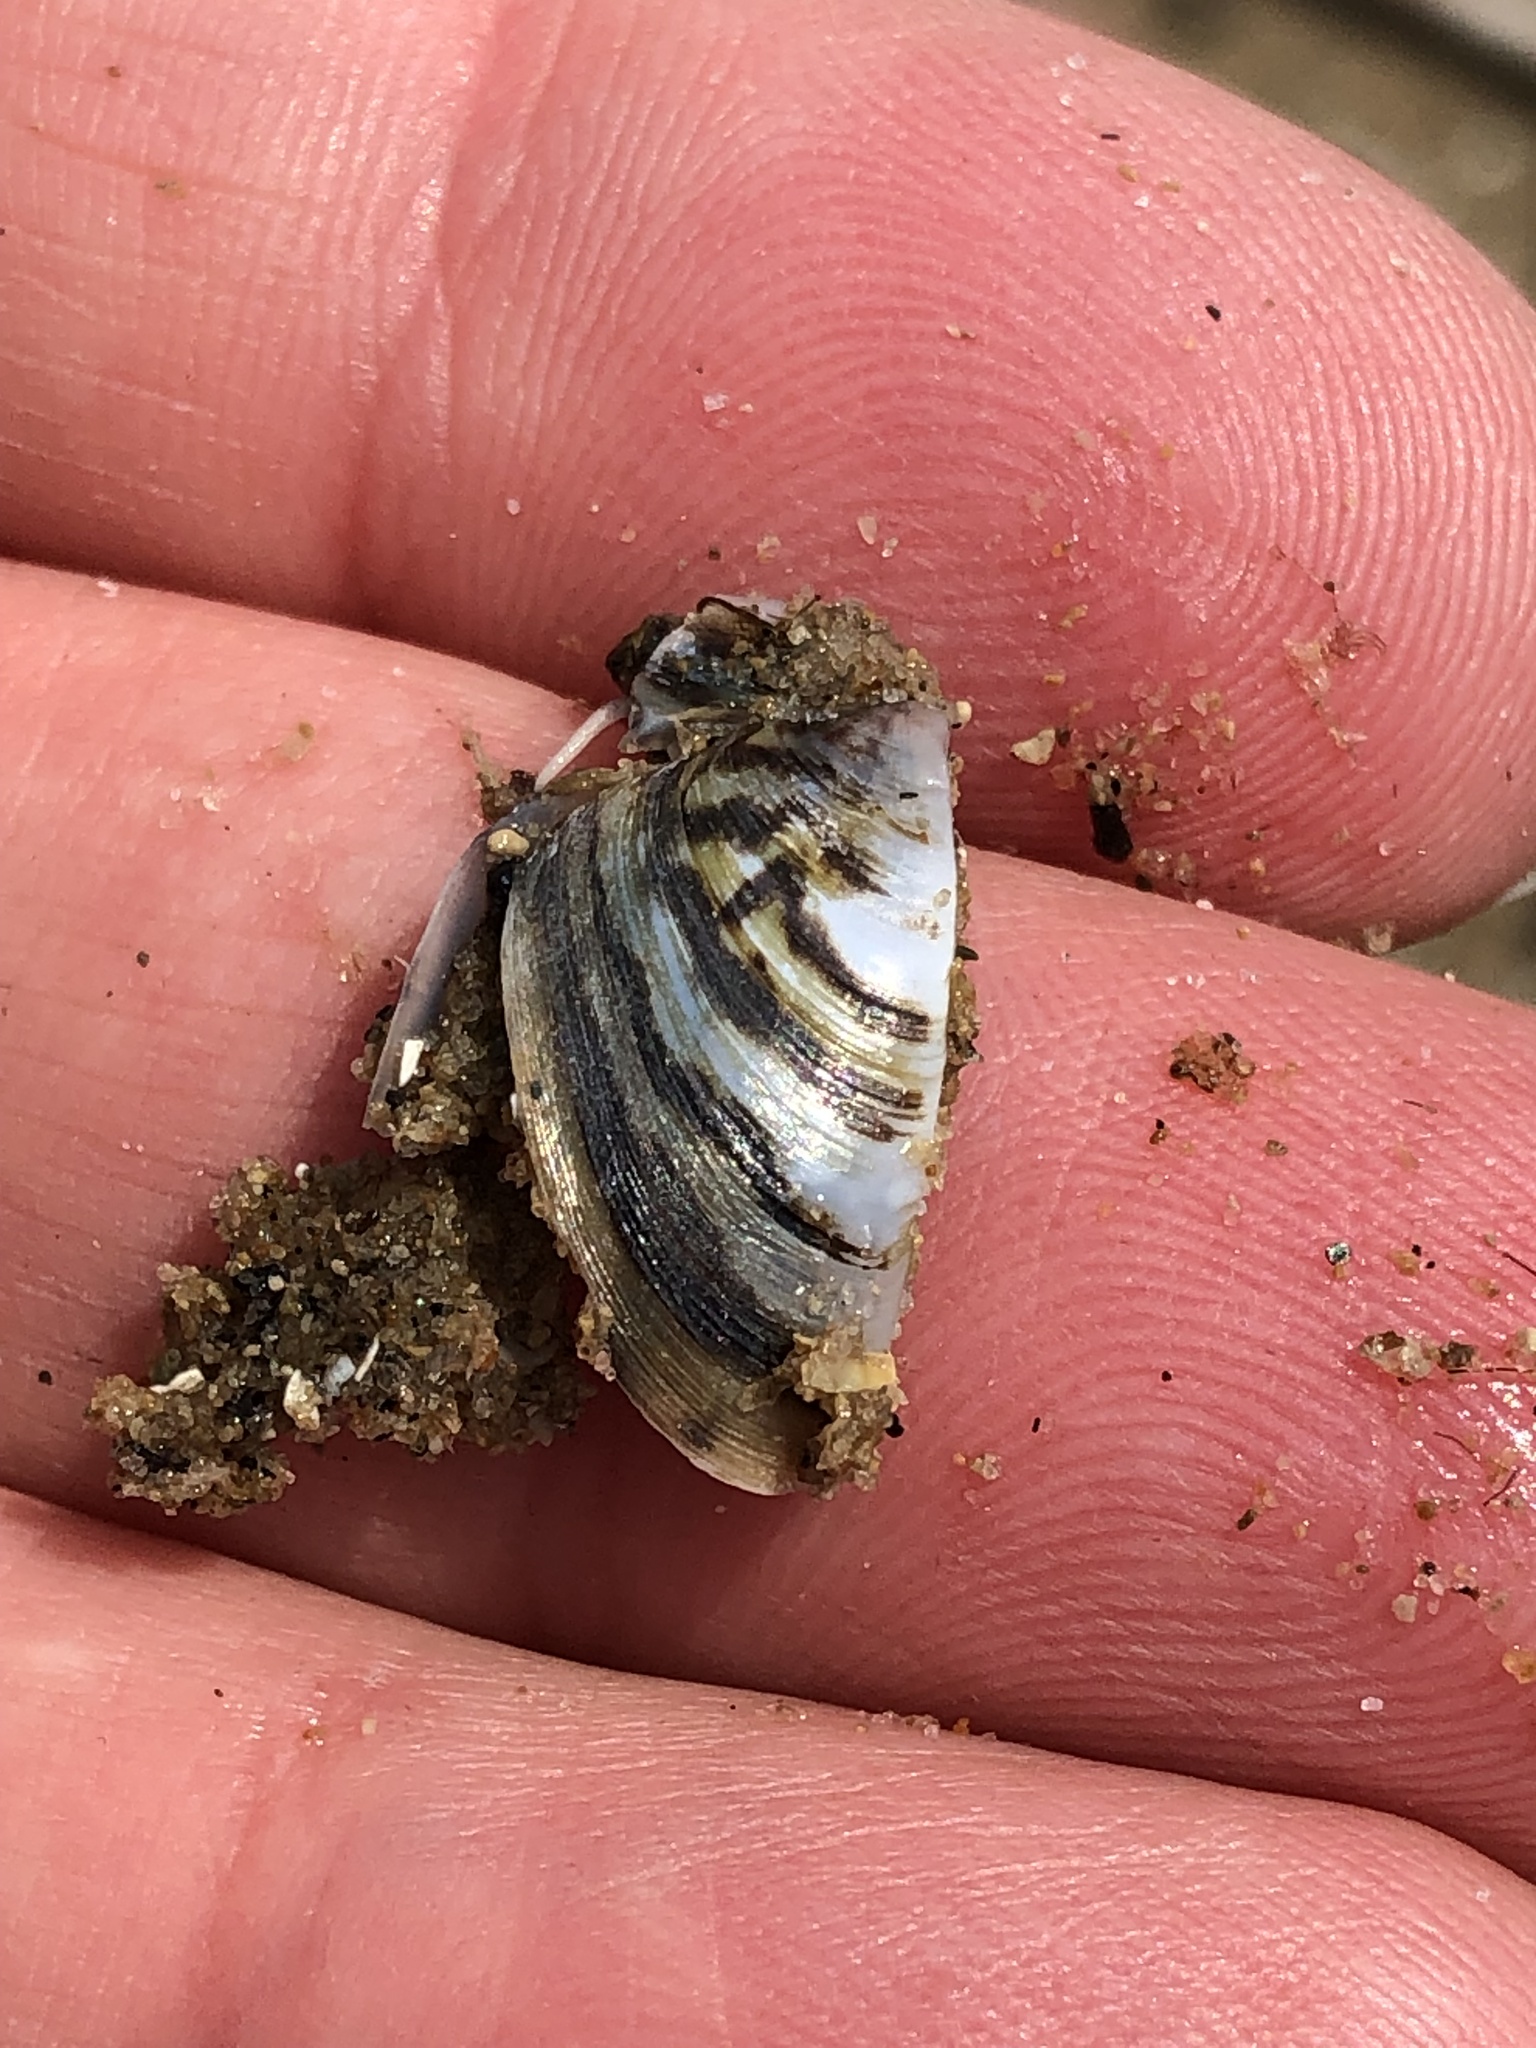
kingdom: Animalia
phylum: Mollusca
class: Bivalvia
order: Myida
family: Dreissenidae
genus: Dreissena
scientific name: Dreissena polymorpha
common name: Zebra mussel
